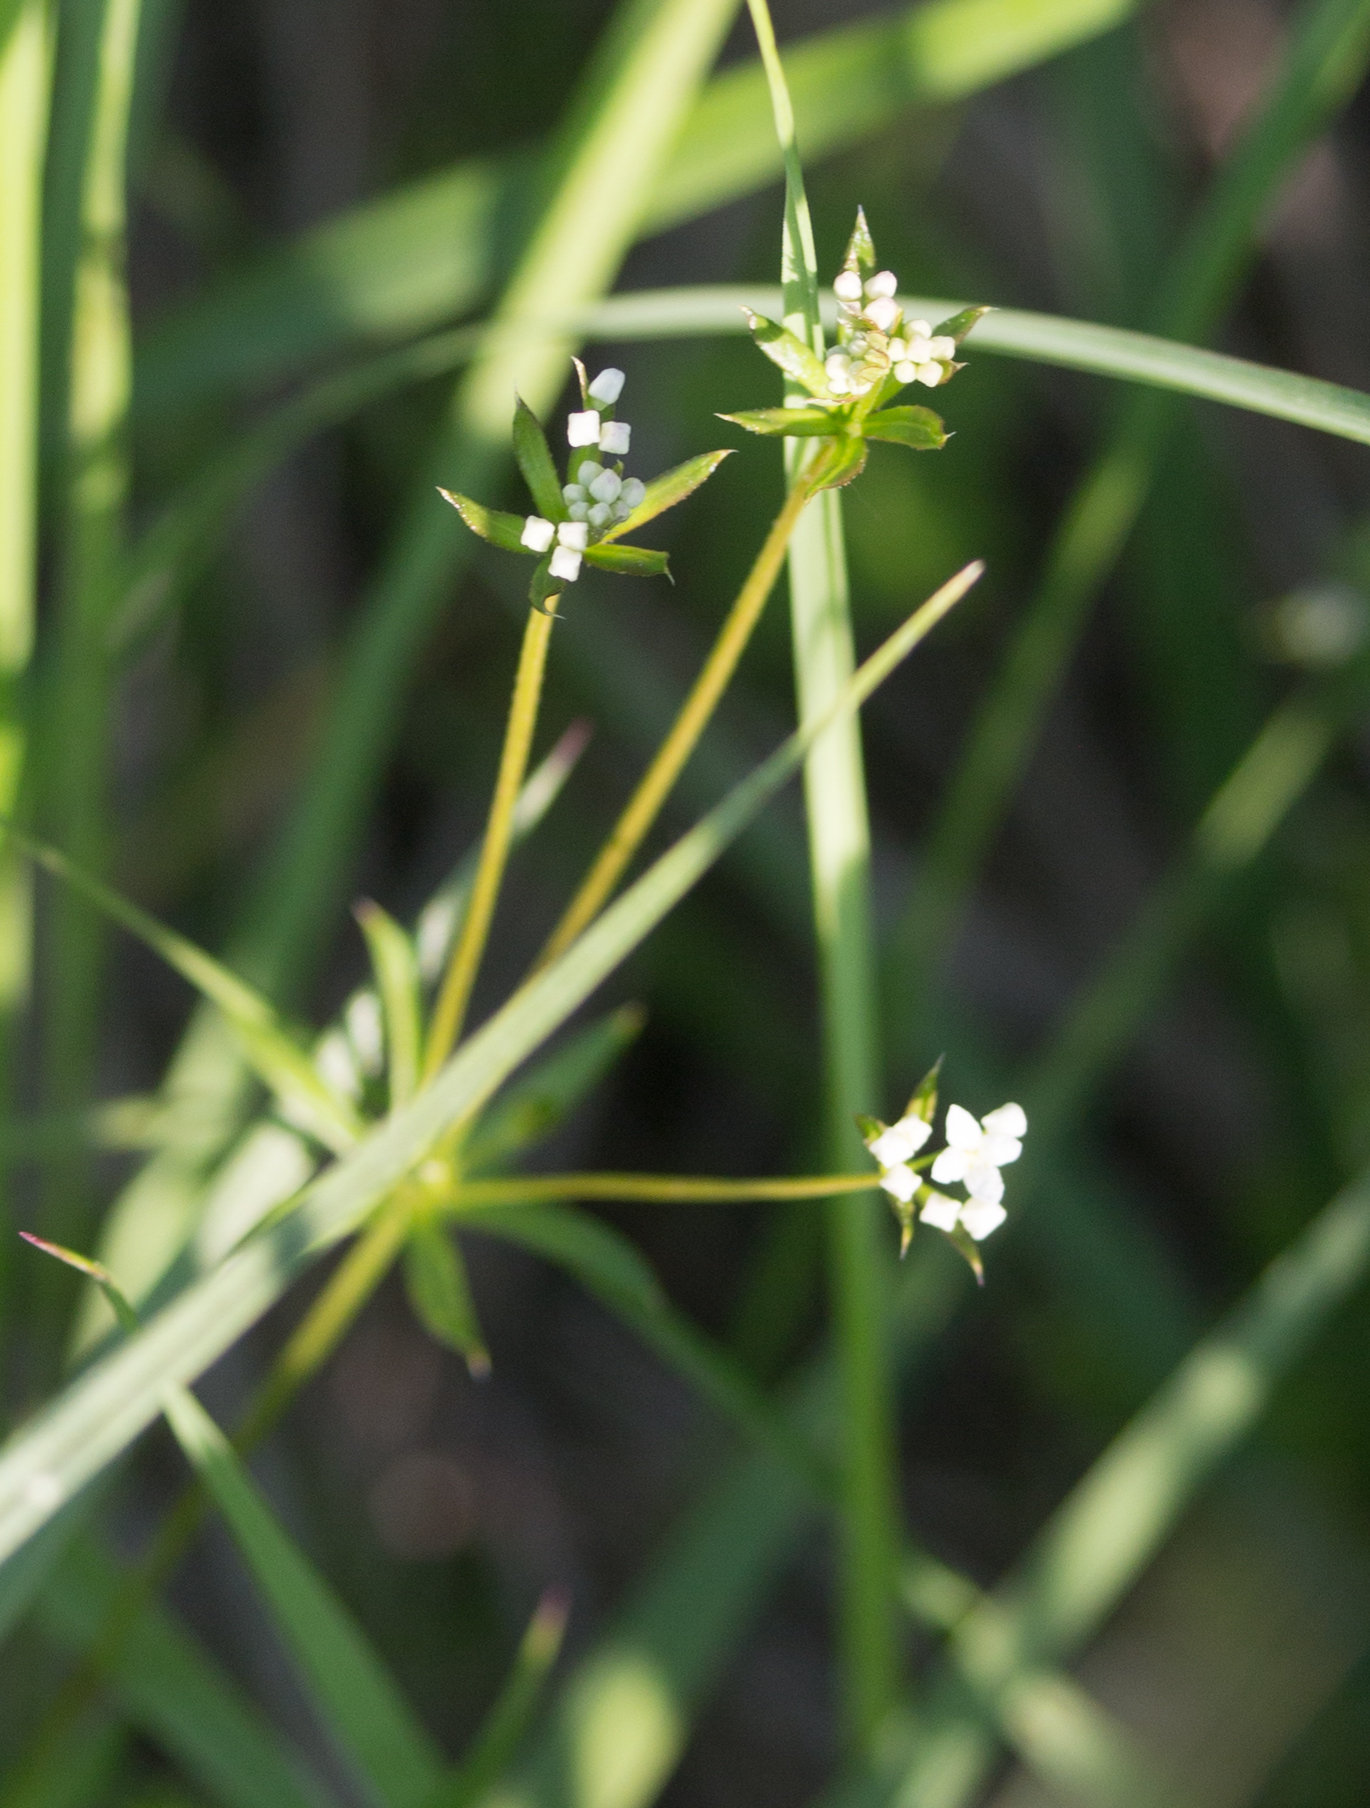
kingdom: Plantae
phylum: Tracheophyta
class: Magnoliopsida
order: Gentianales
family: Rubiaceae
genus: Galium
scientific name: Galium uliginosum
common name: Fen bedstraw
